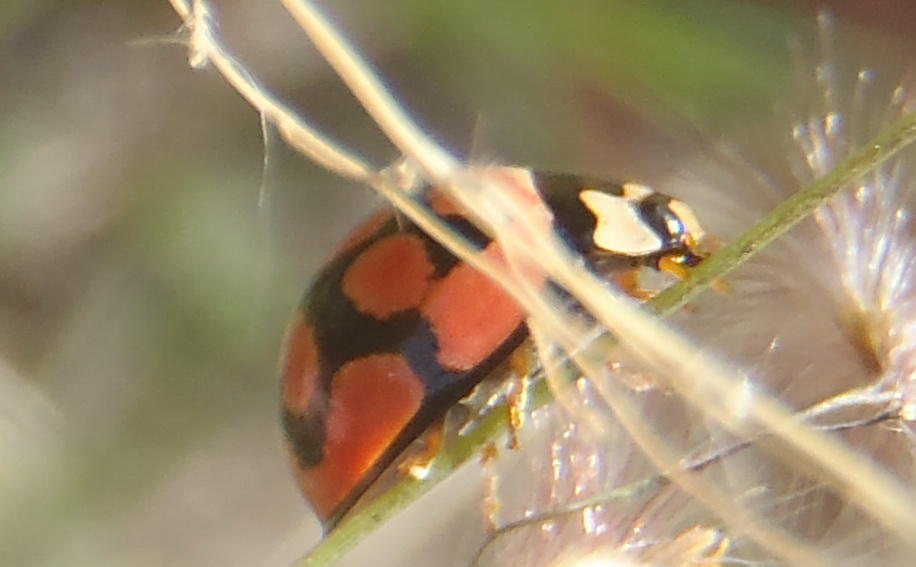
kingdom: Animalia
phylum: Arthropoda
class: Insecta
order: Coleoptera
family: Coccinellidae
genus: Cheilomenes
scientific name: Cheilomenes lunata
